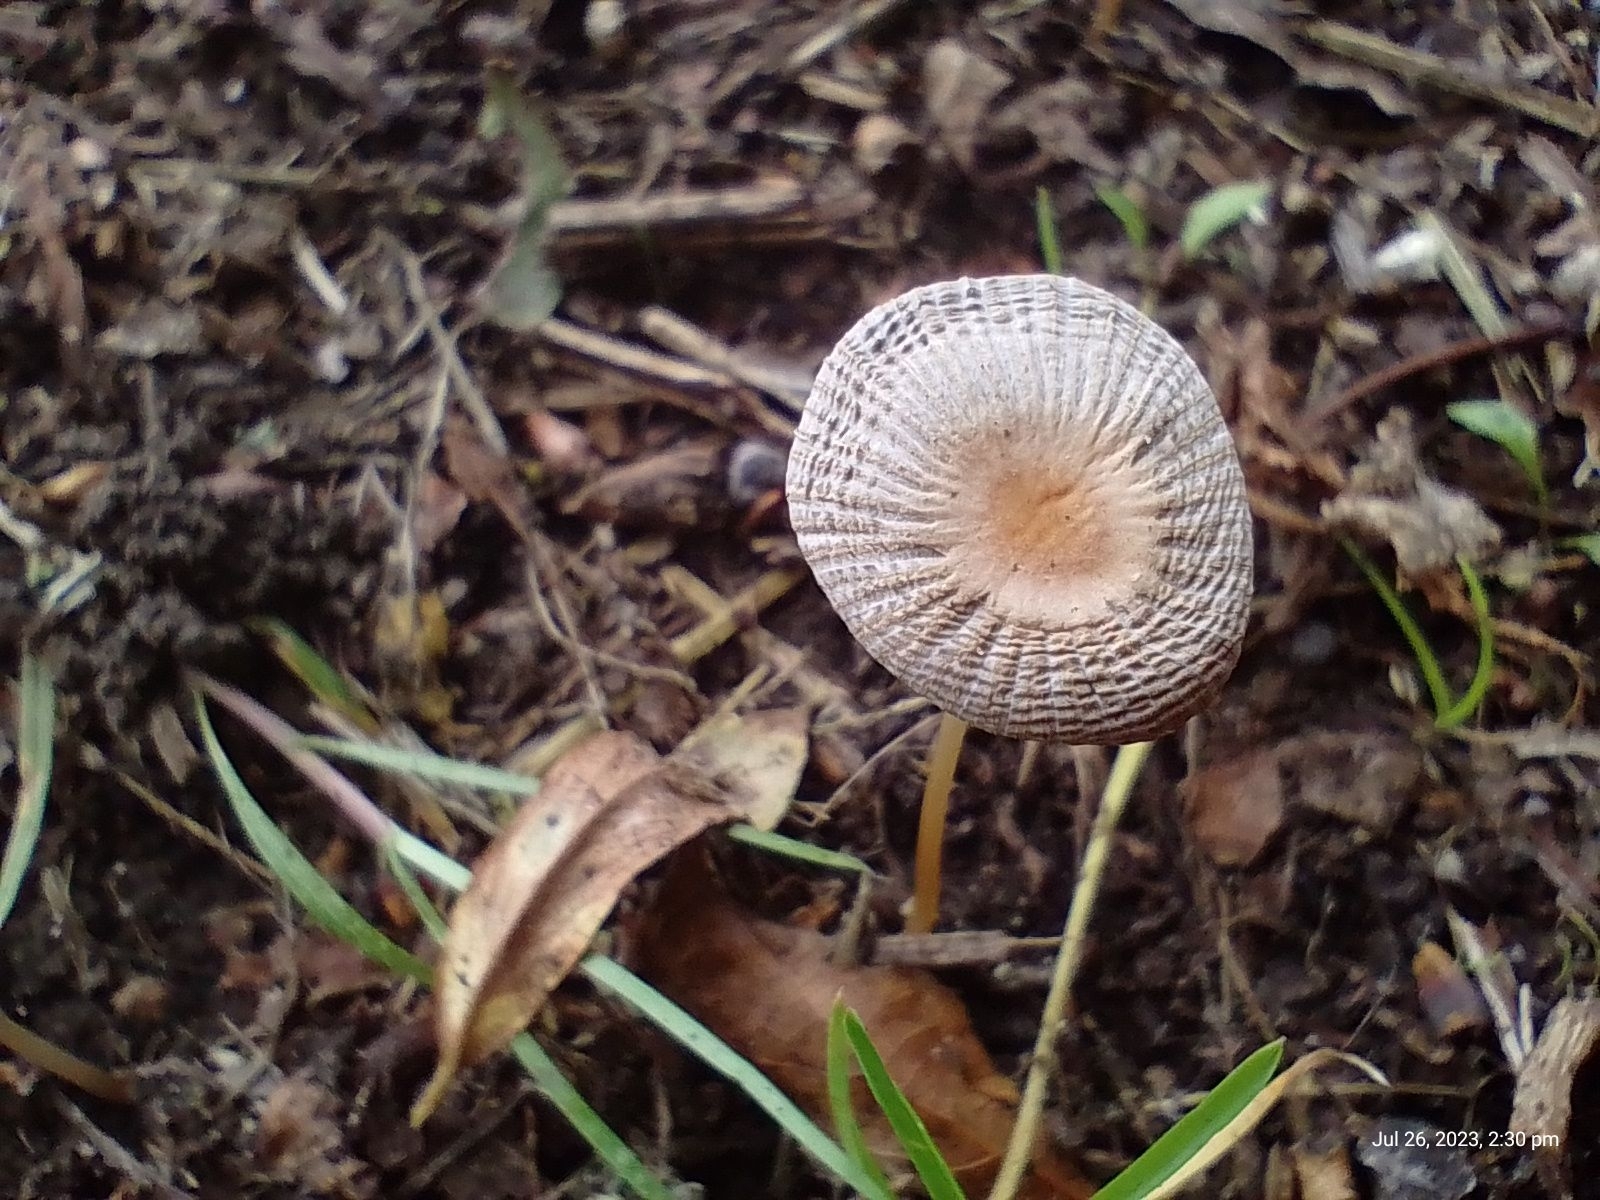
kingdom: Fungi
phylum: Basidiomycota
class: Agaricomycetes
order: Agaricales
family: Psathyrellaceae
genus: Parasola
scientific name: Parasola plicatilis
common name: Pleated inkcap
